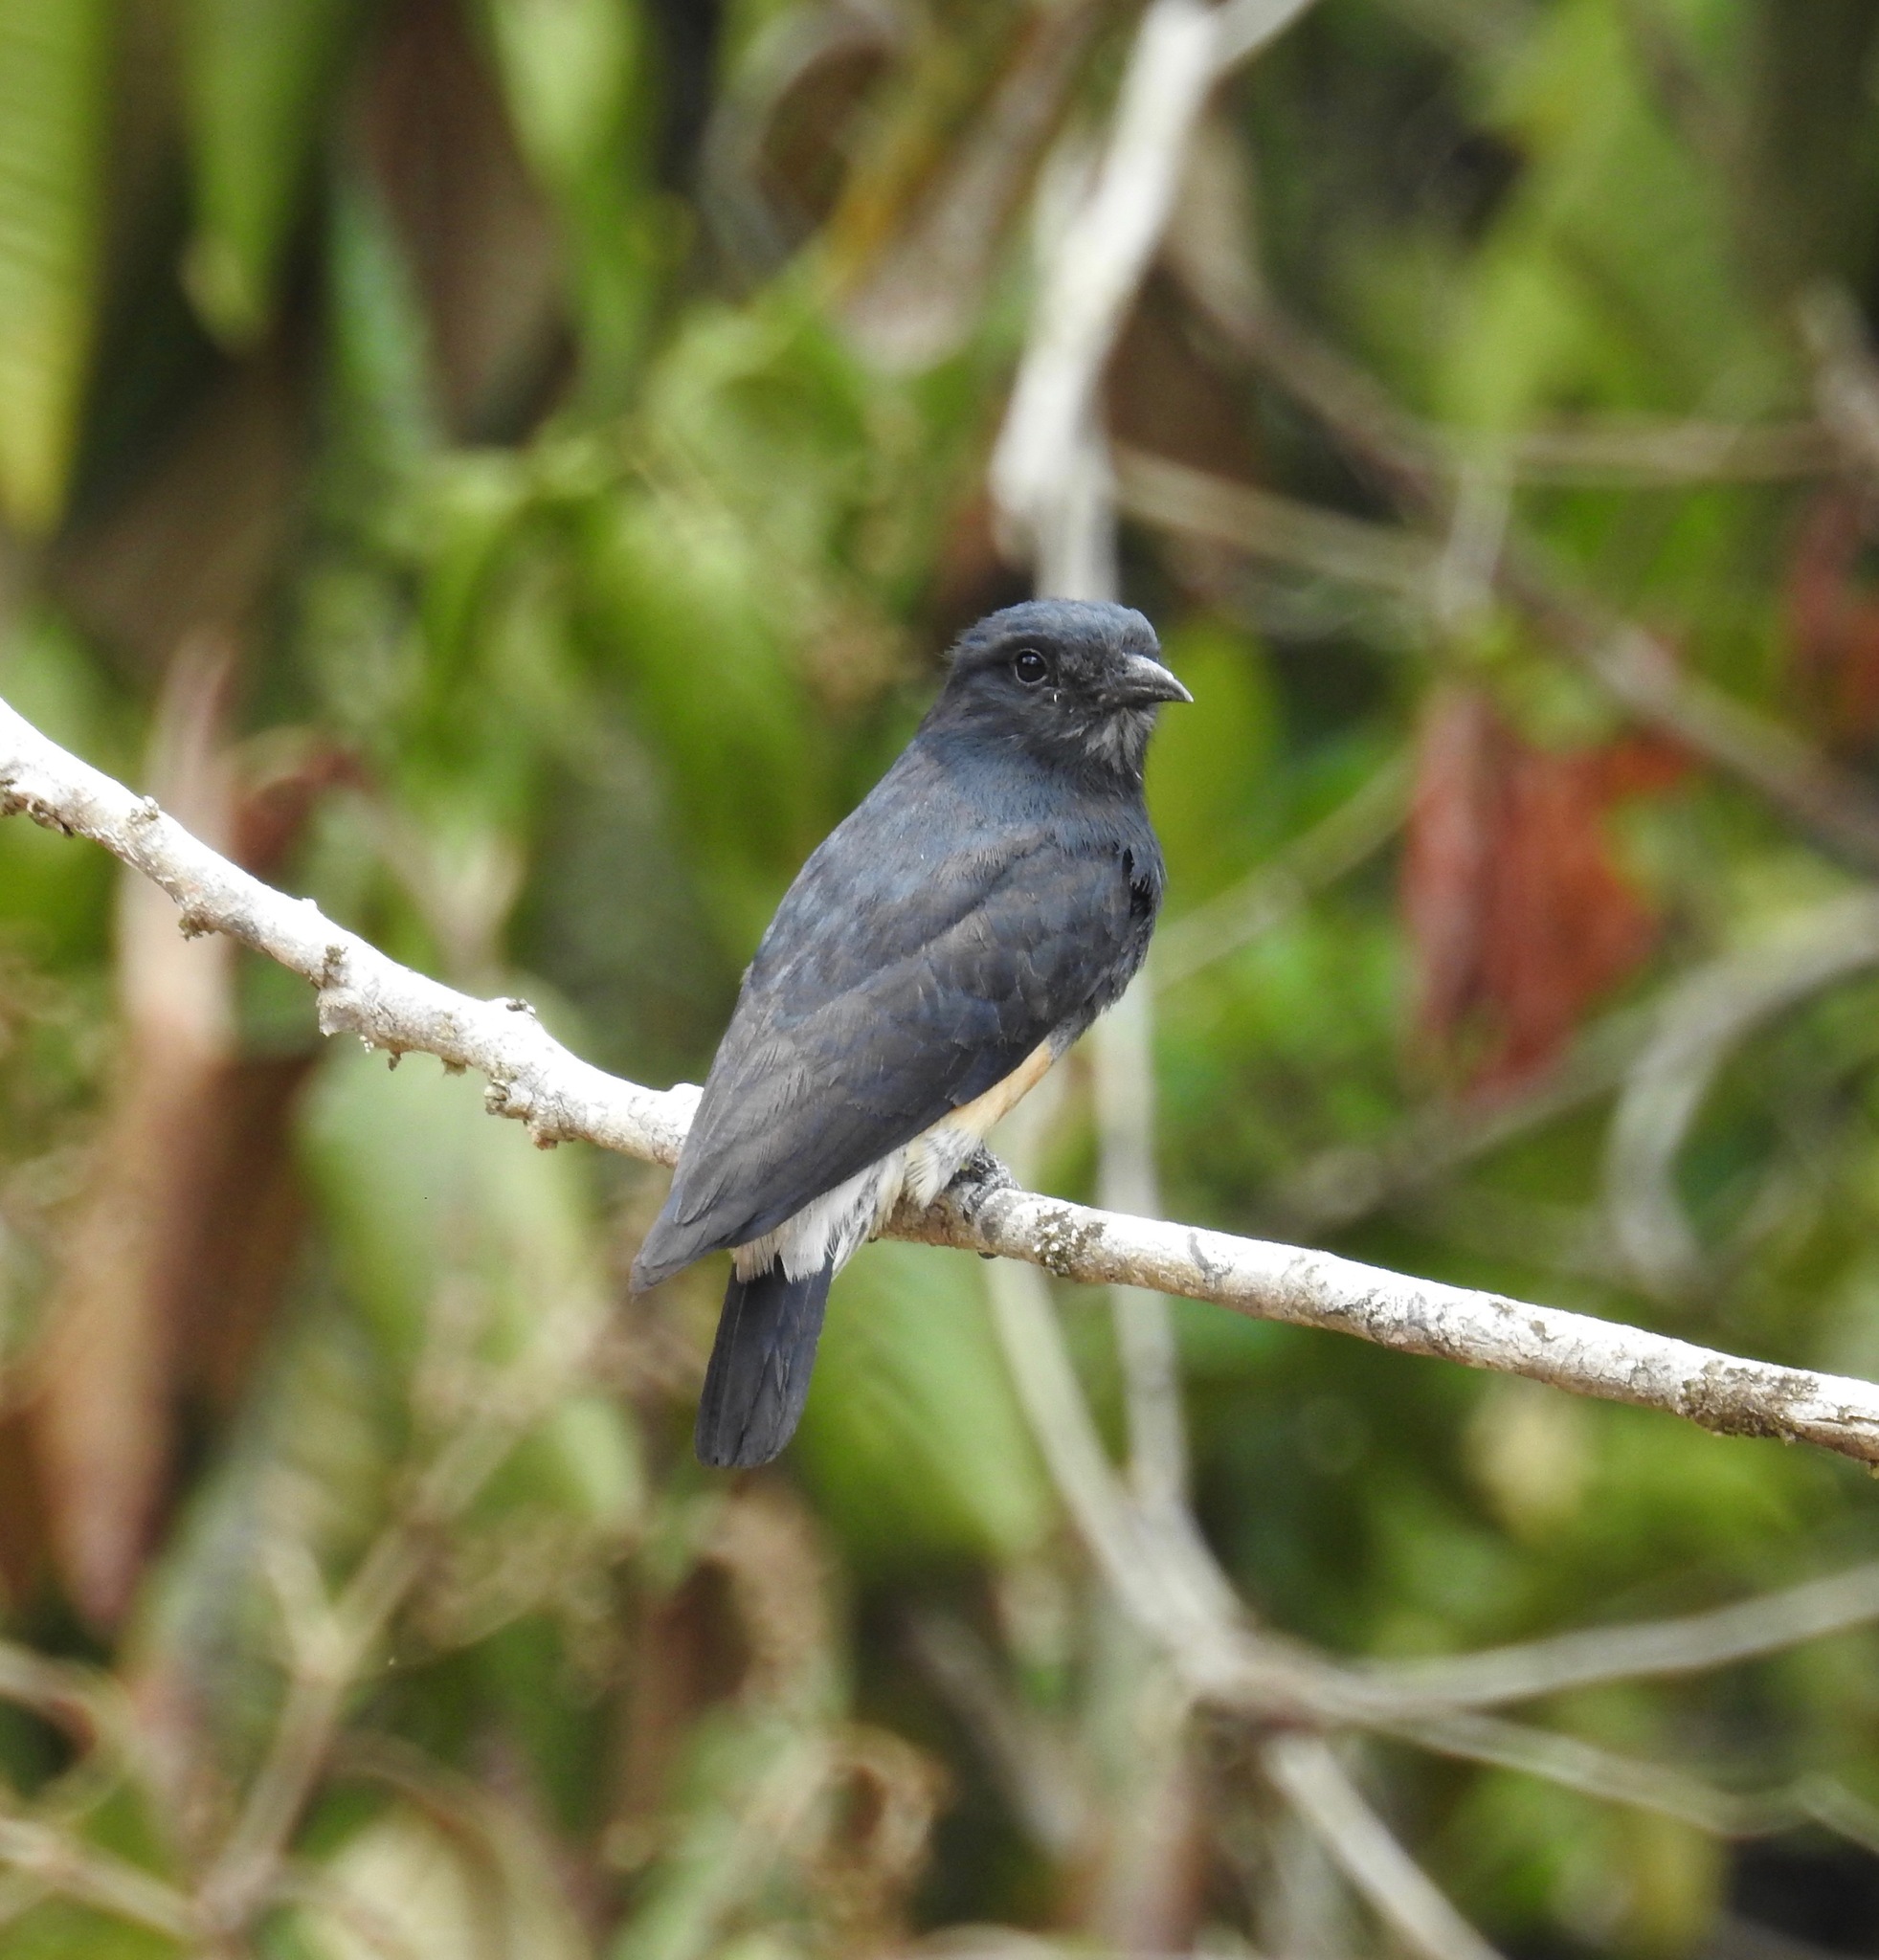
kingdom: Animalia
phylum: Chordata
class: Aves
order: Piciformes
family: Bucconidae
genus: Chelidoptera
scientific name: Chelidoptera tenebrosa
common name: Swallow-winged puffbird
